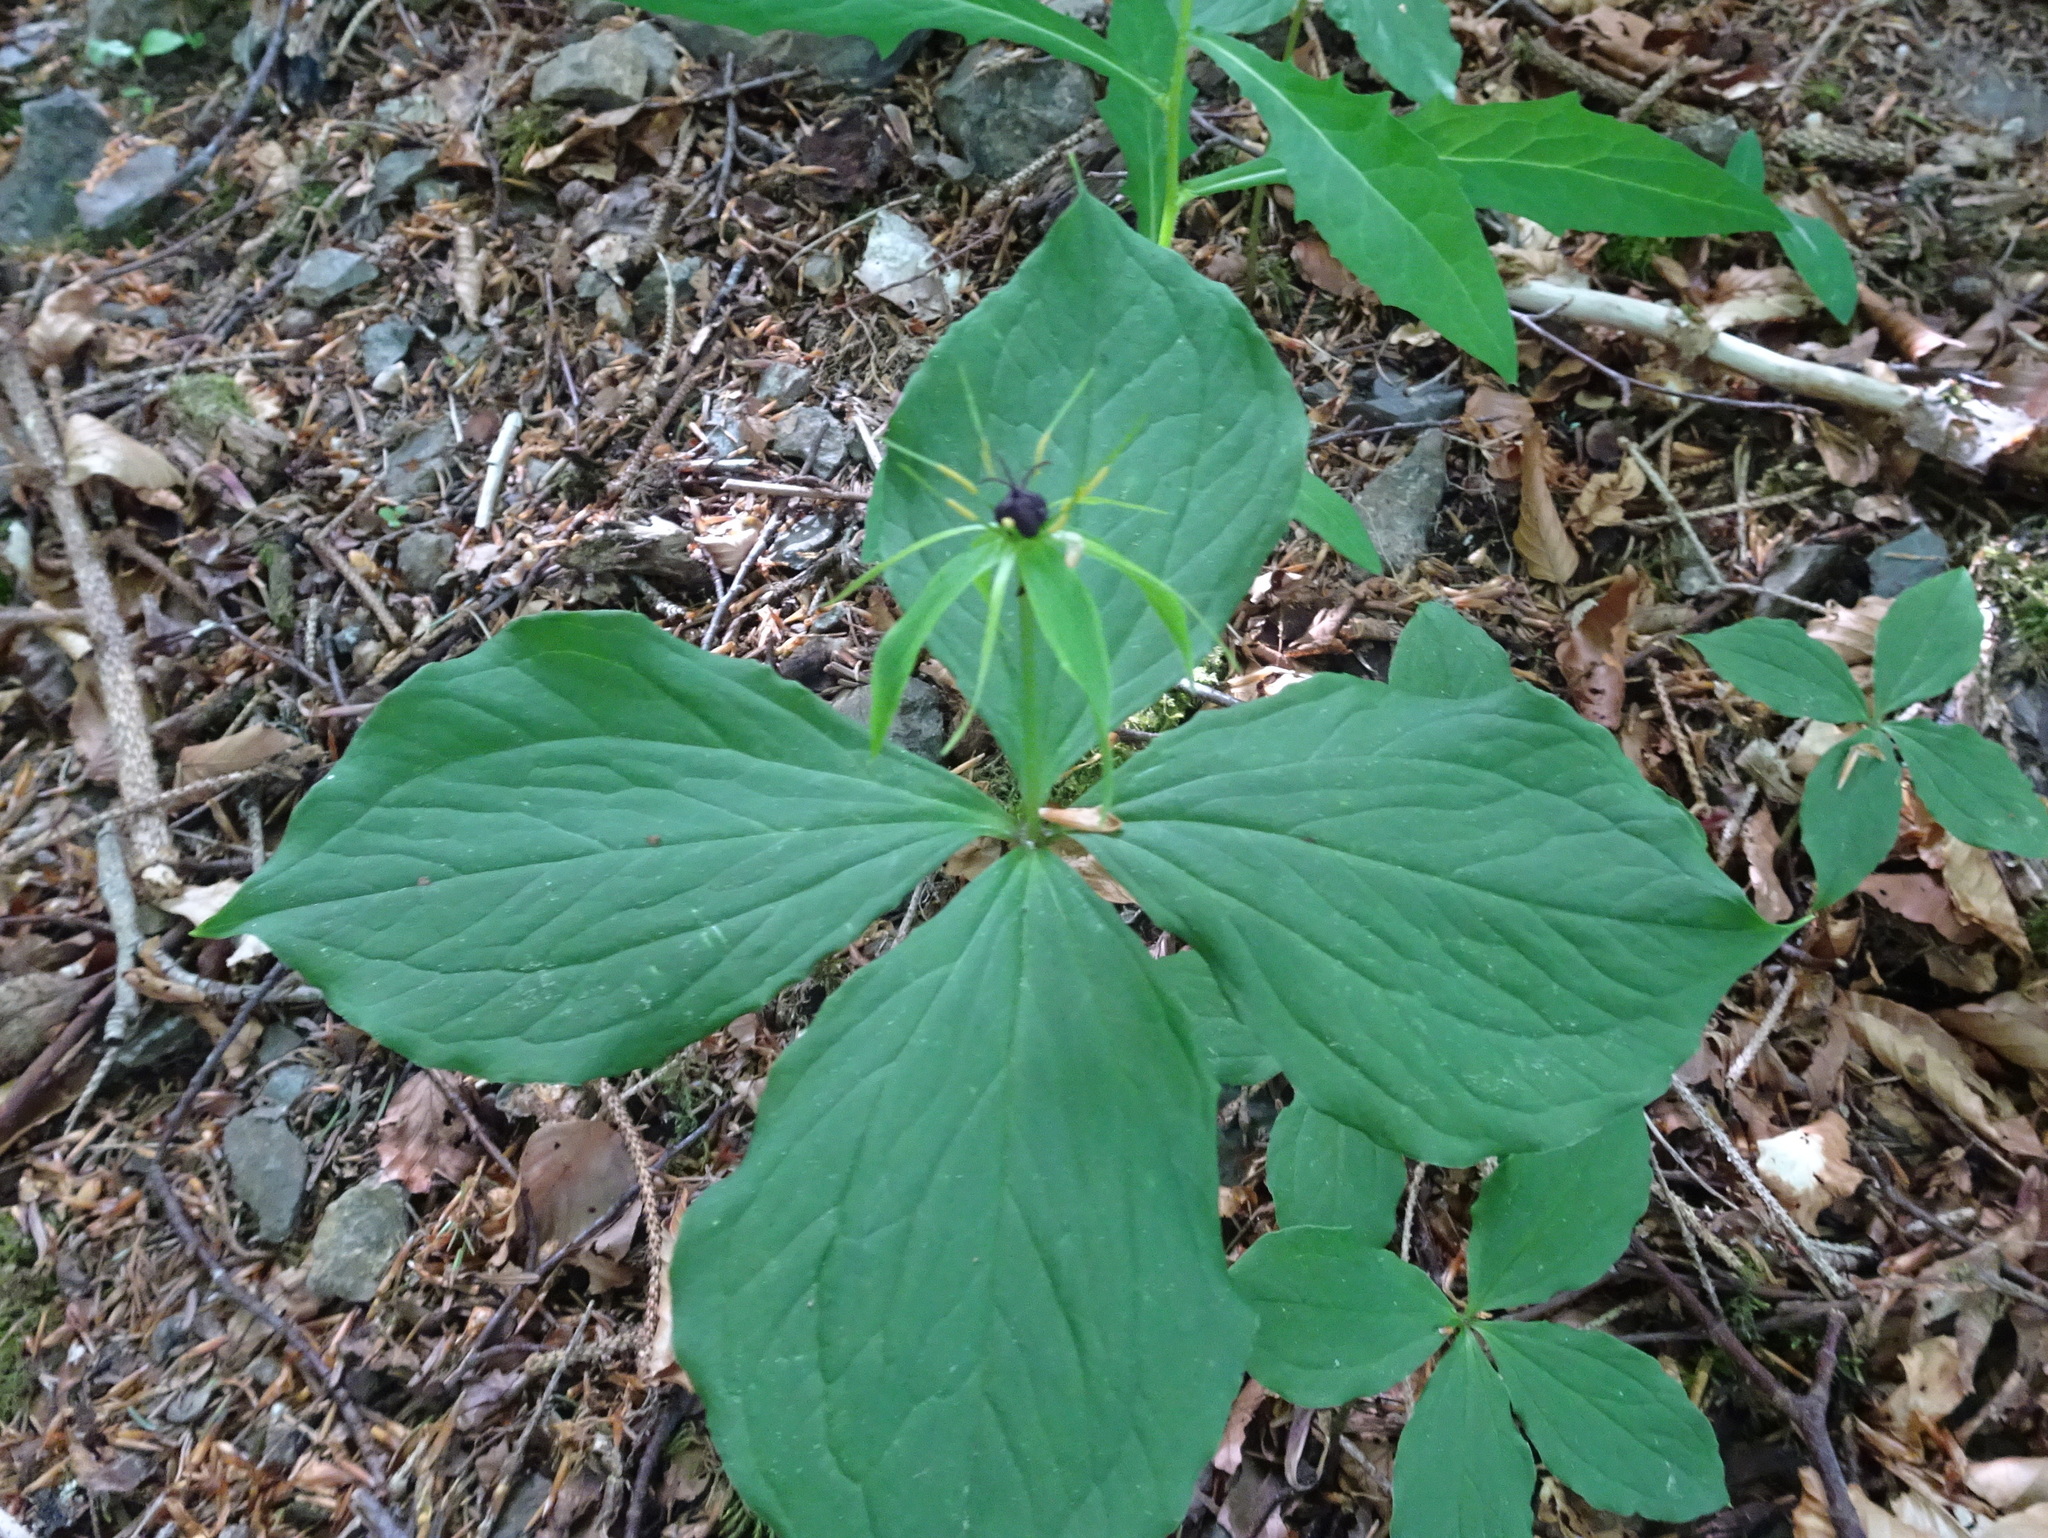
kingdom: Plantae
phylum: Tracheophyta
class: Liliopsida
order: Liliales
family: Melanthiaceae
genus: Paris
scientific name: Paris quadrifolia
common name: Herb-paris
